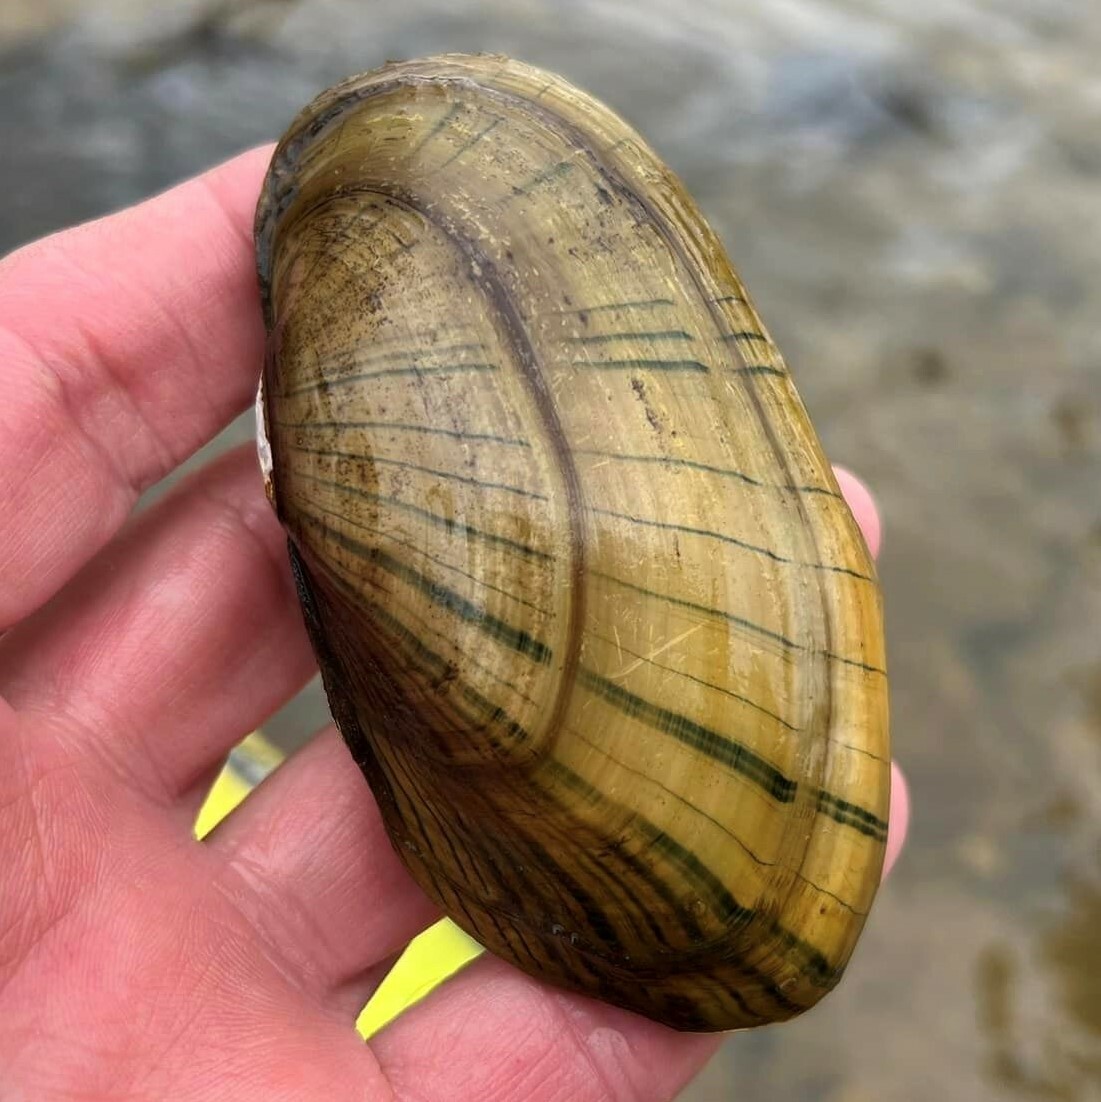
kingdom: Animalia
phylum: Mollusca
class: Bivalvia
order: Unionida
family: Unionidae
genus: Lampsilis
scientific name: Lampsilis siliquoidea
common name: Fatmucket
